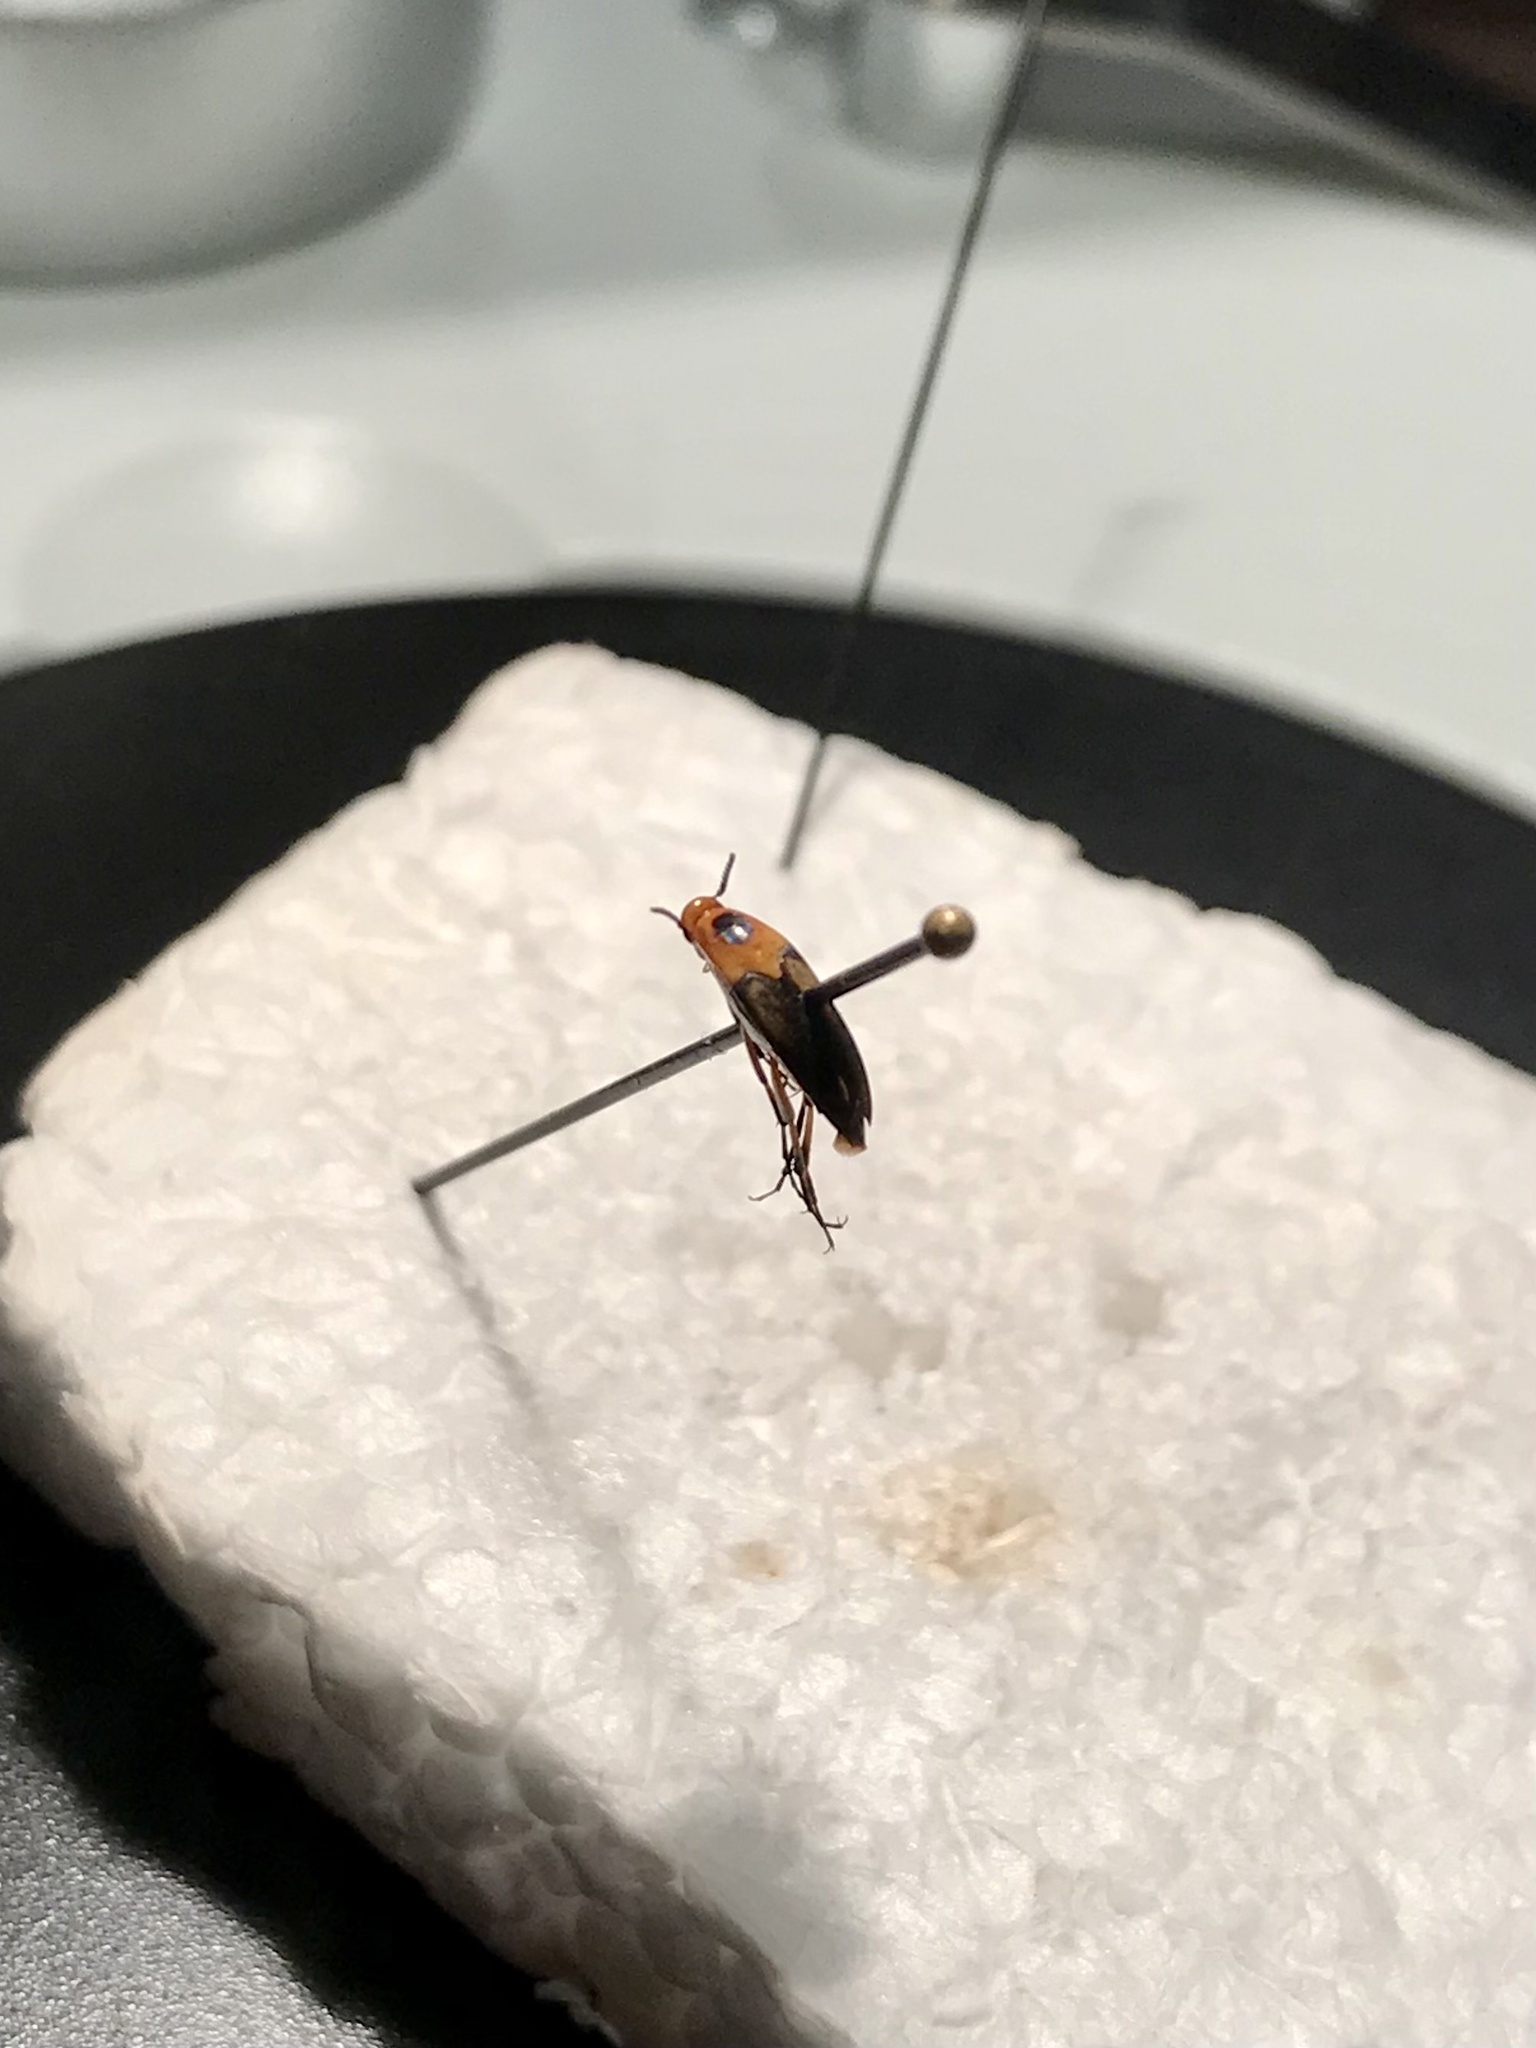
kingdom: Animalia
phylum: Arthropoda
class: Insecta
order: Coleoptera
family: Ripiphoridae
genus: Macrosiagon
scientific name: Macrosiagon limbatum
